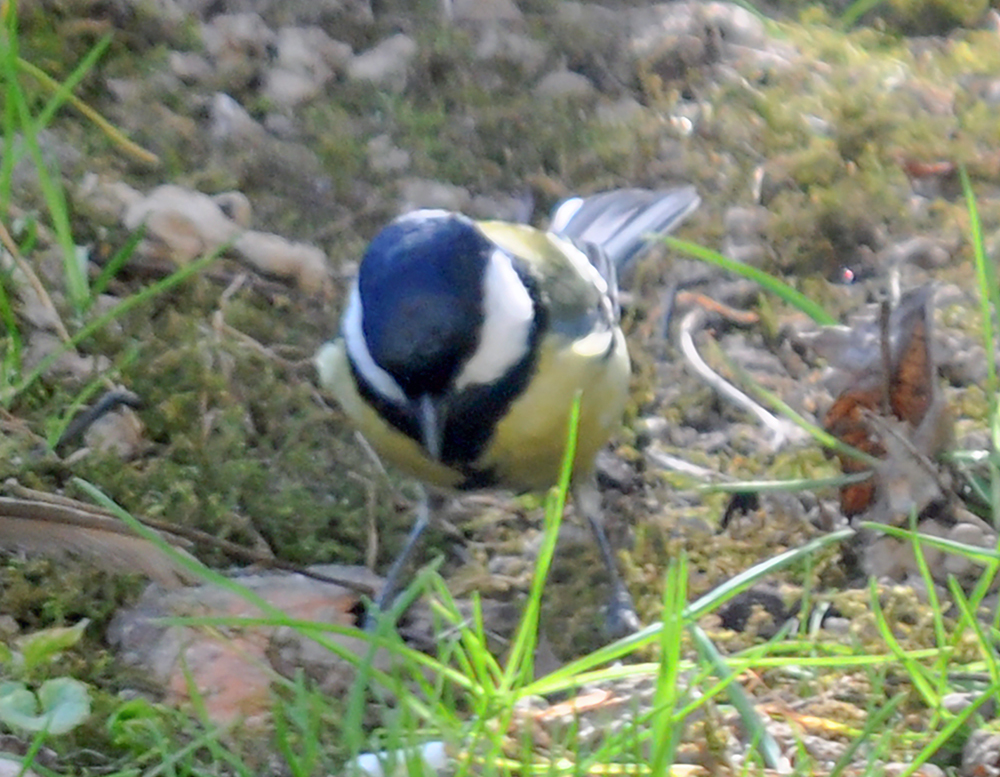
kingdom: Animalia
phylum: Chordata
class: Aves
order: Passeriformes
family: Paridae
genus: Parus
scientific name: Parus major
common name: Great tit
